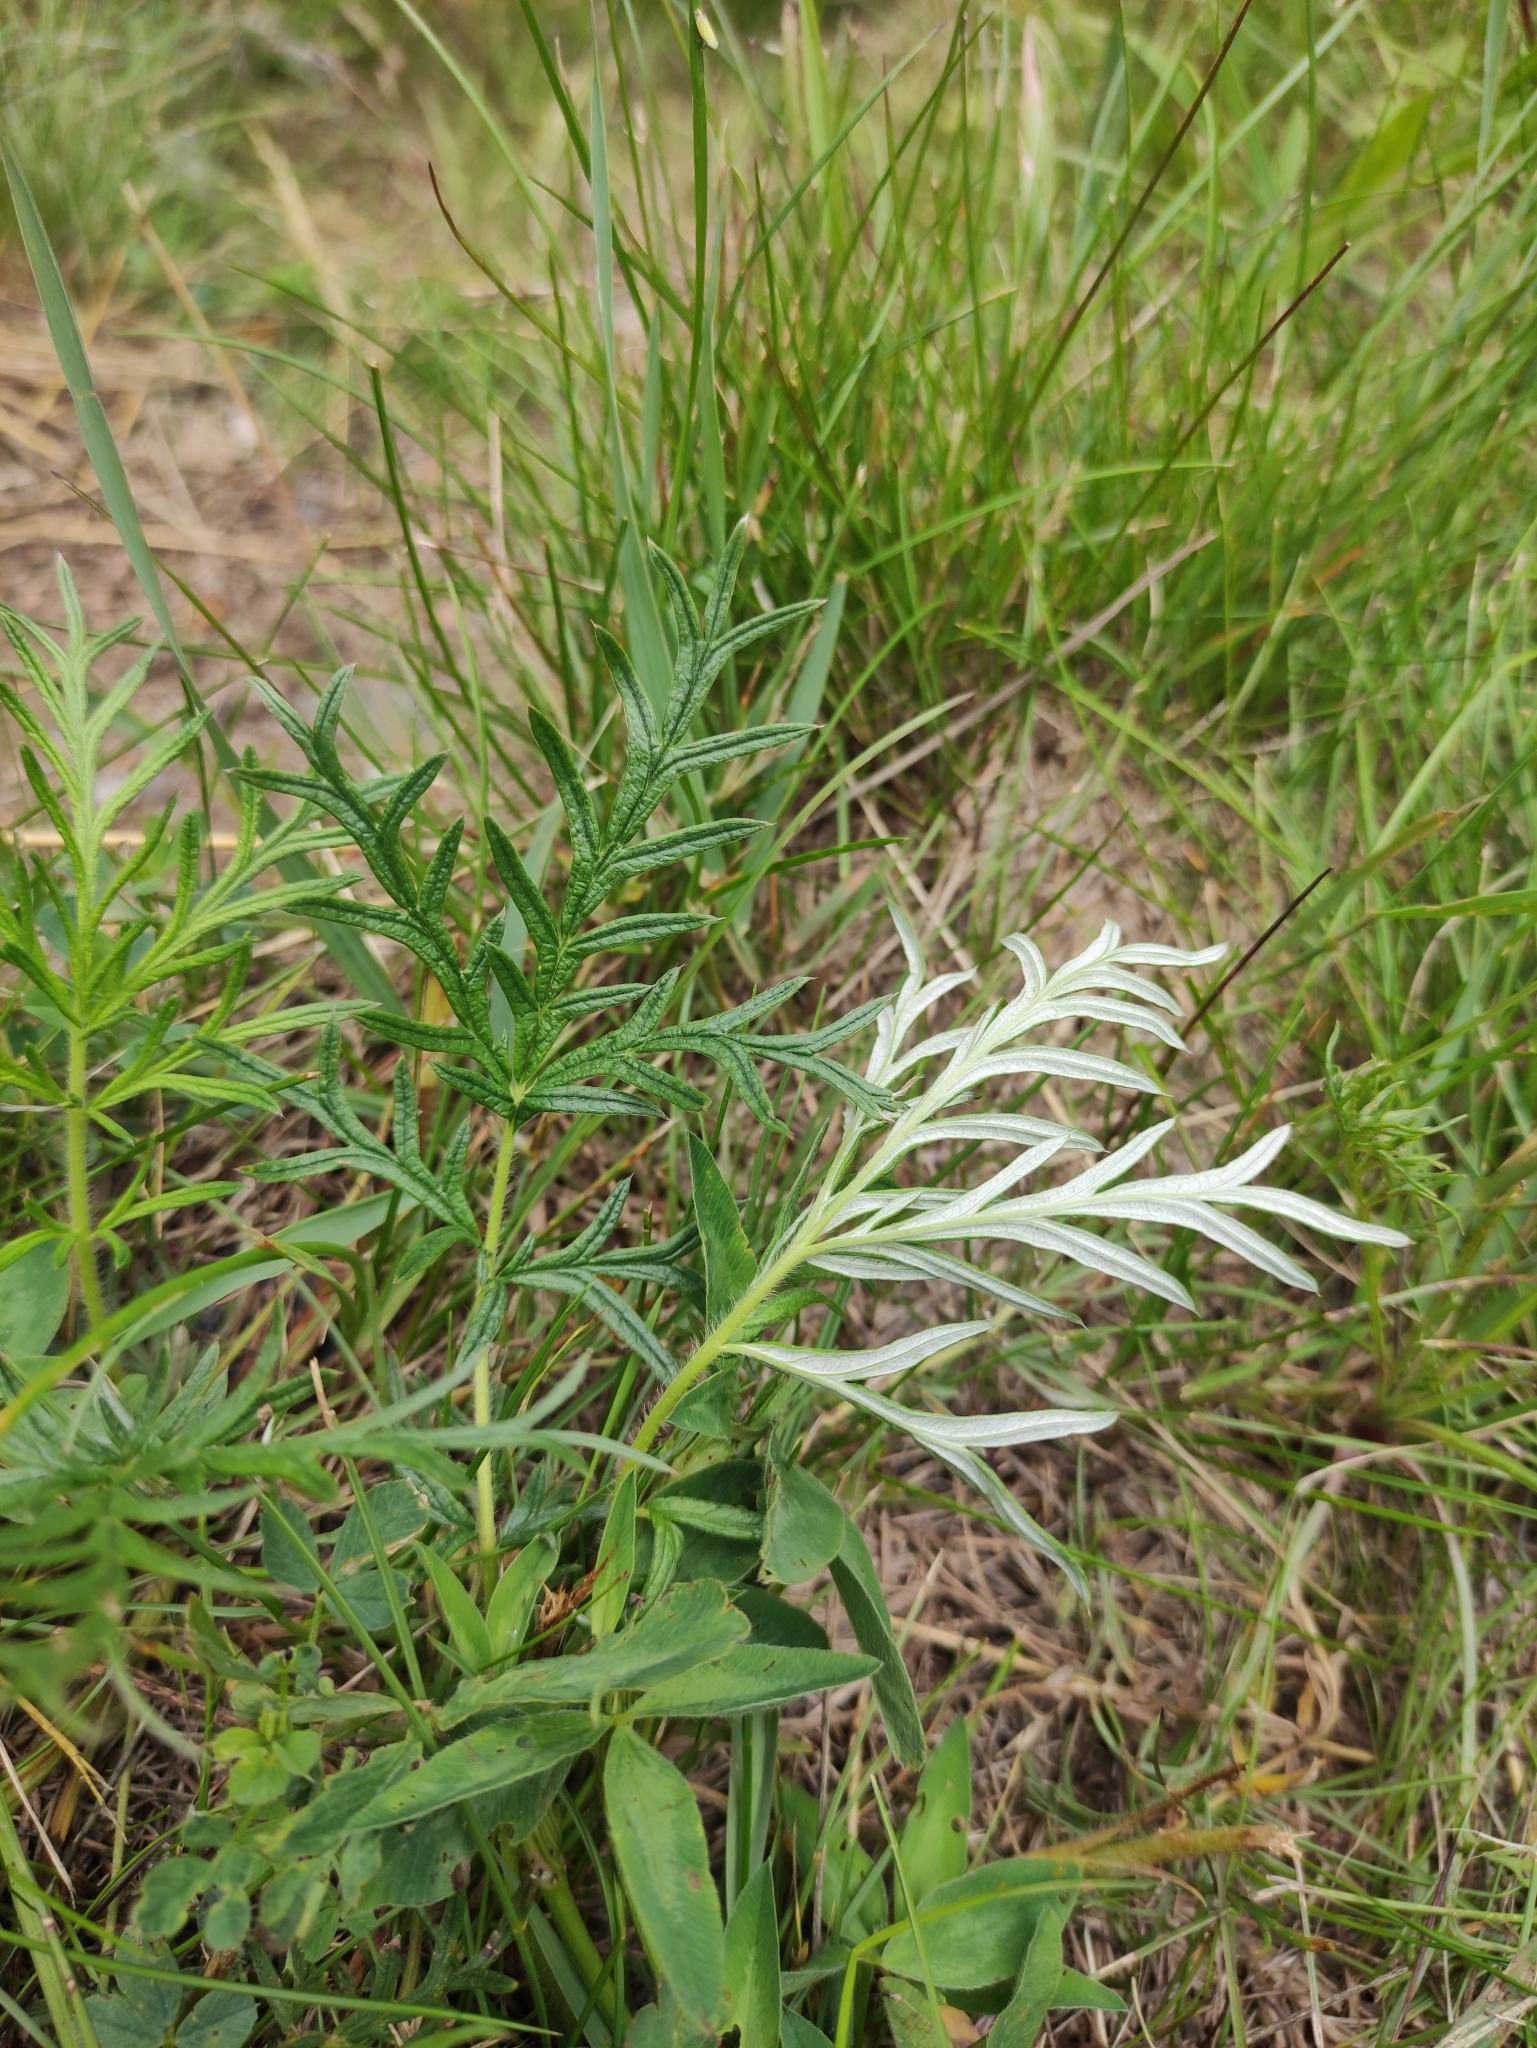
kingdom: Plantae
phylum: Tracheophyta
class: Magnoliopsida
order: Rosales
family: Rosaceae
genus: Potentilla
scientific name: Potentilla tergemina
